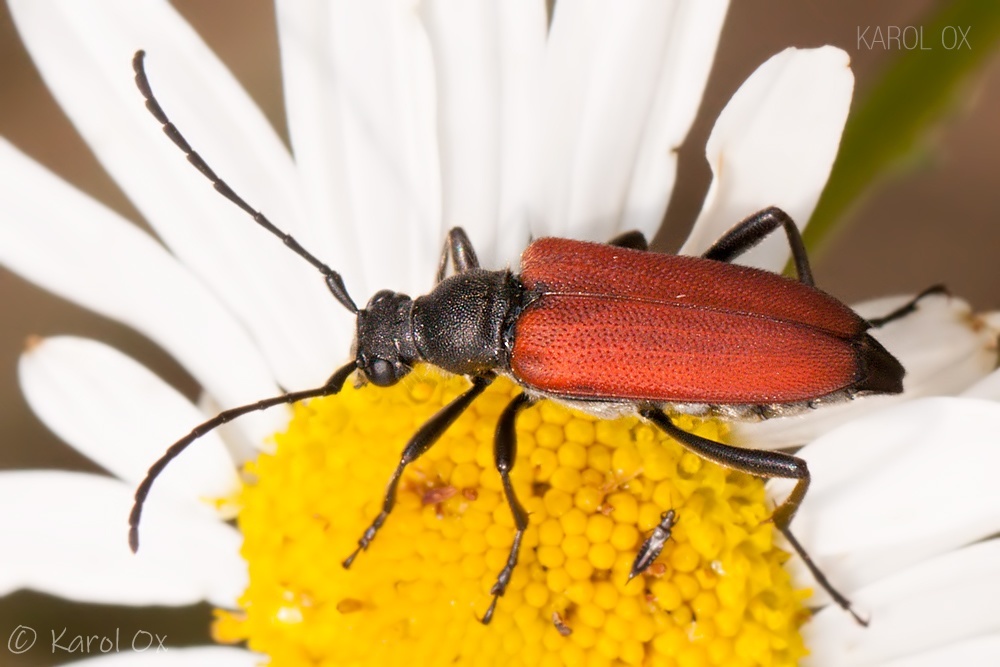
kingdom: Animalia
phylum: Arthropoda
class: Insecta
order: Coleoptera
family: Cerambycidae
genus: Anastrangalia
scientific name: Anastrangalia sanguinolenta
